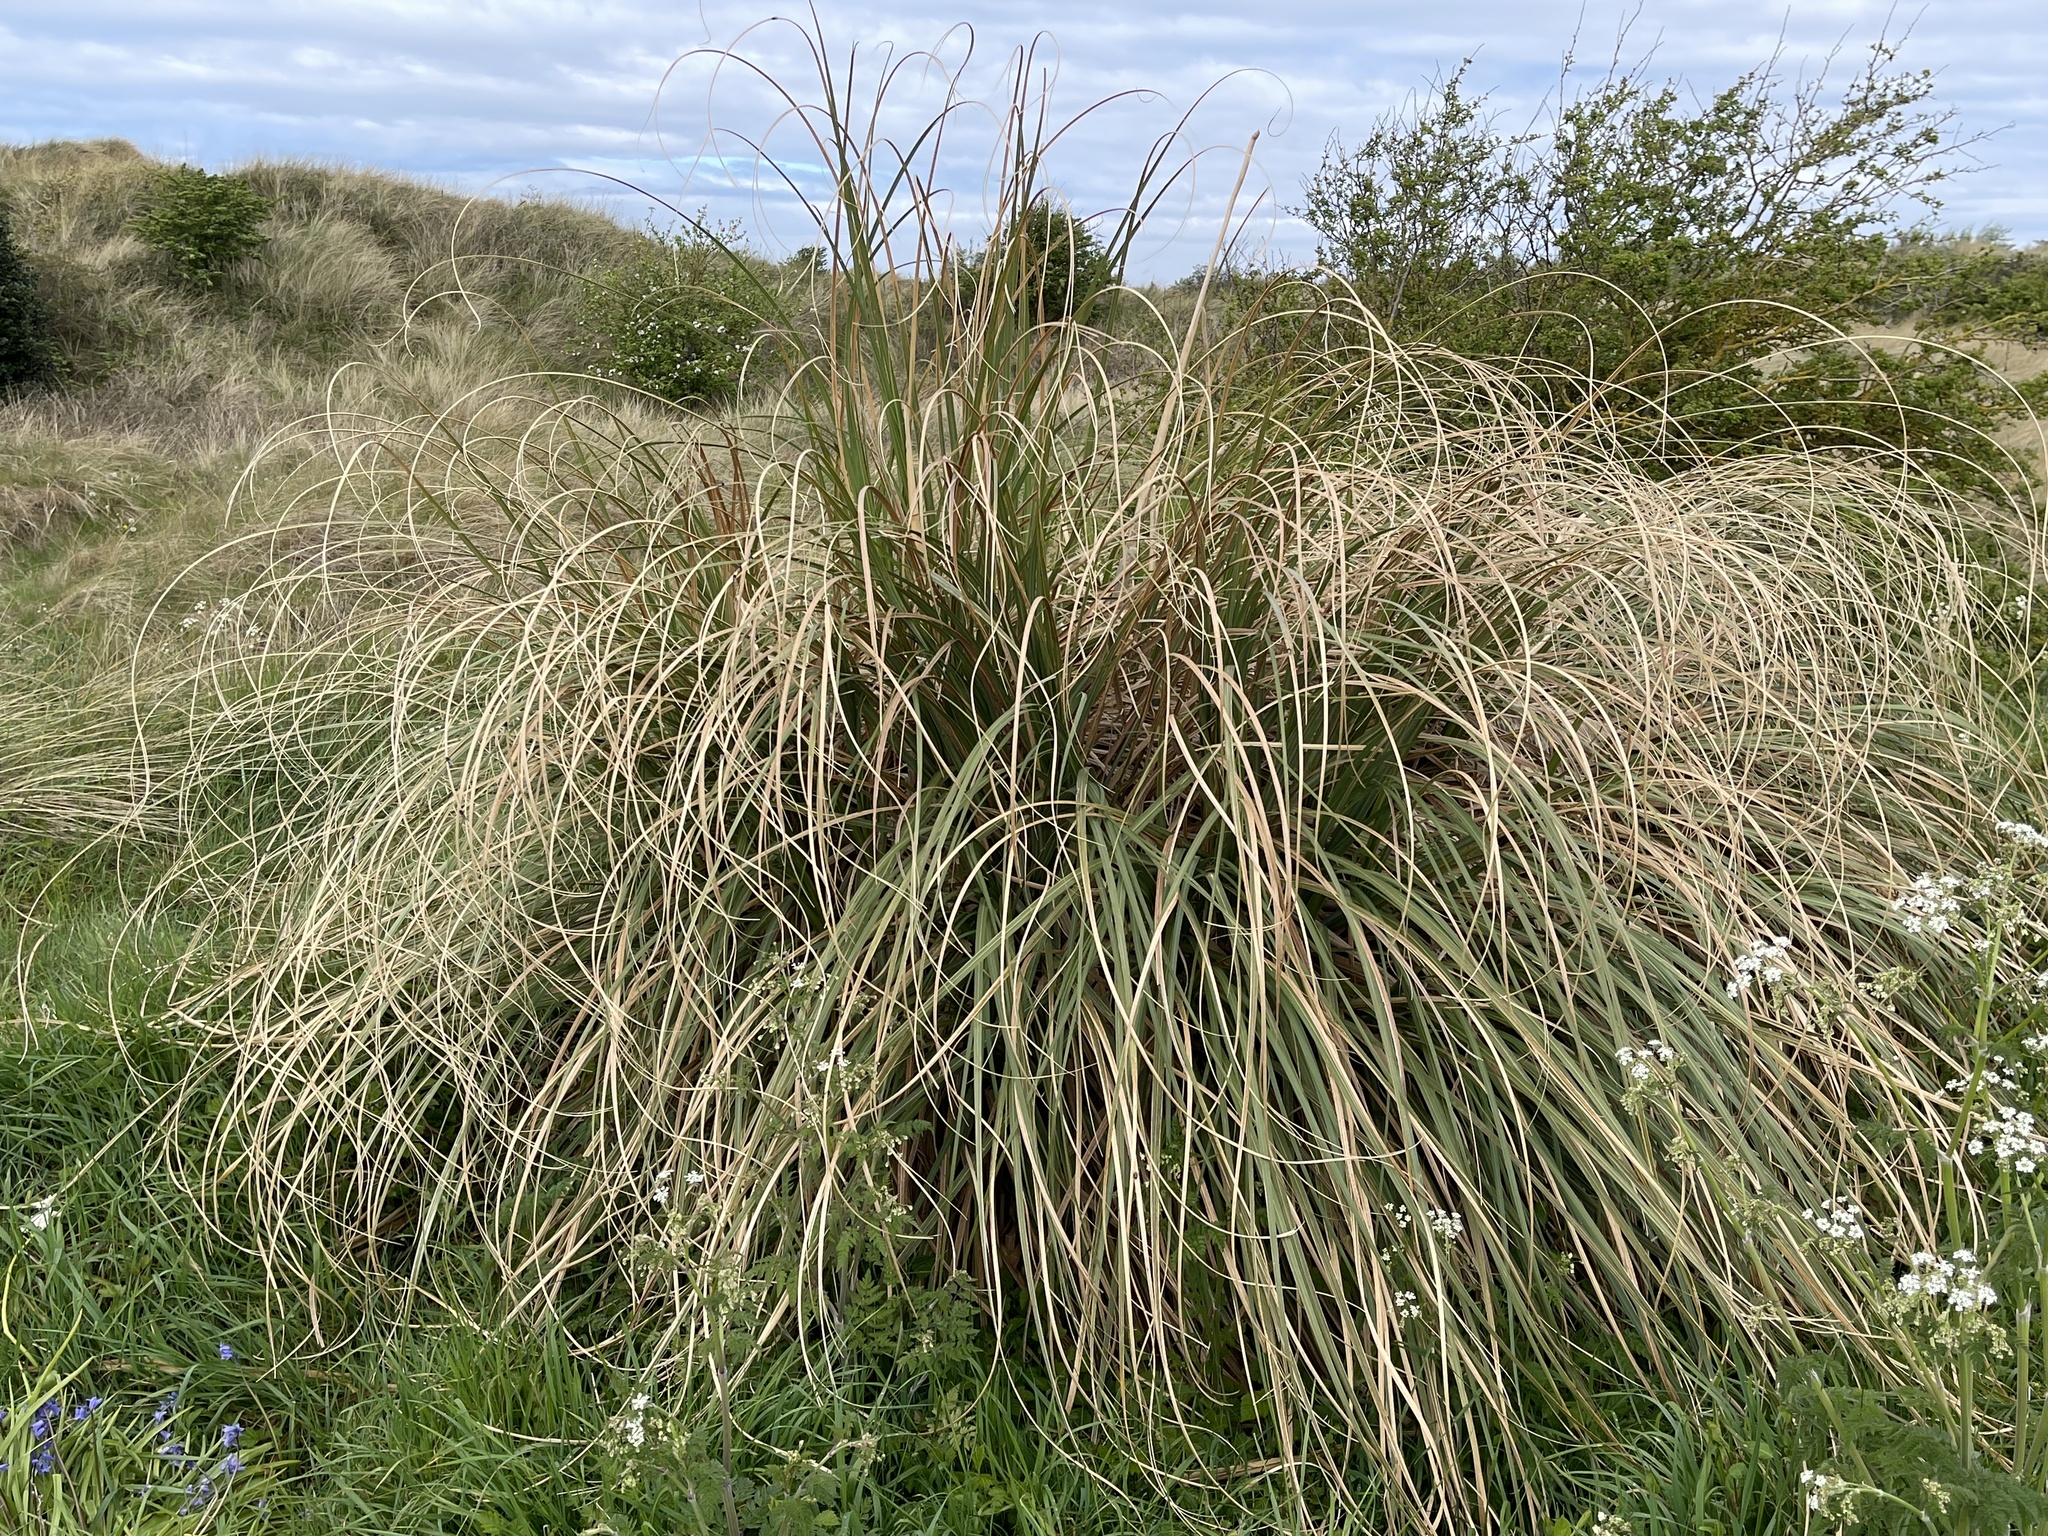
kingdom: Plantae
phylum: Tracheophyta
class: Liliopsida
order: Poales
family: Poaceae
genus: Cortaderia
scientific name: Cortaderia selloana
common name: Uruguayan pampas grass
